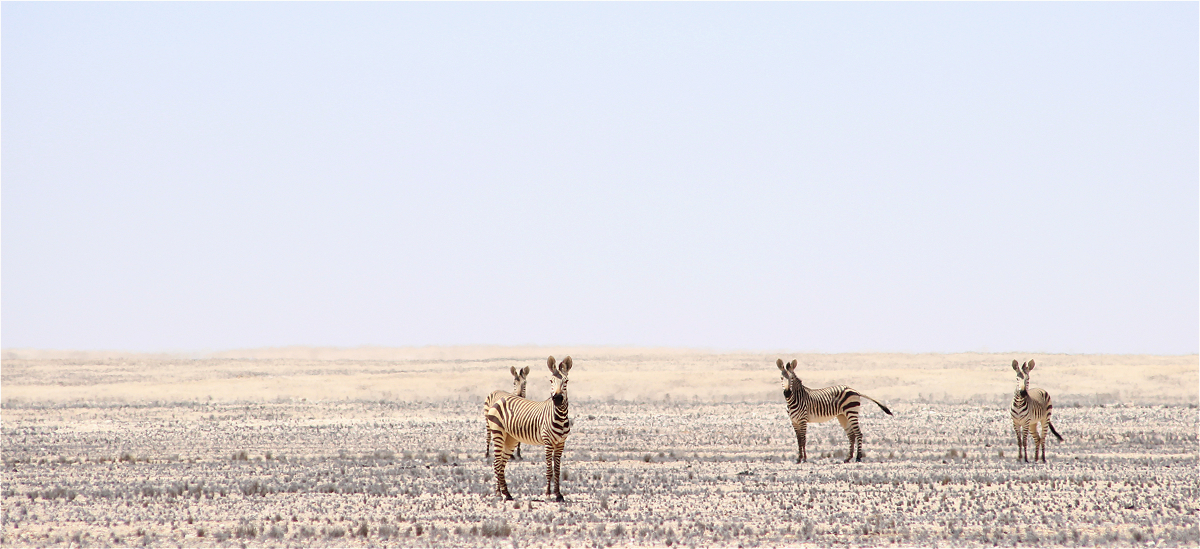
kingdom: Animalia
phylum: Chordata
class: Mammalia
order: Perissodactyla
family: Equidae
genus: Equus
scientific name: Equus hartmannae
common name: Hartmann's mountain zebra
